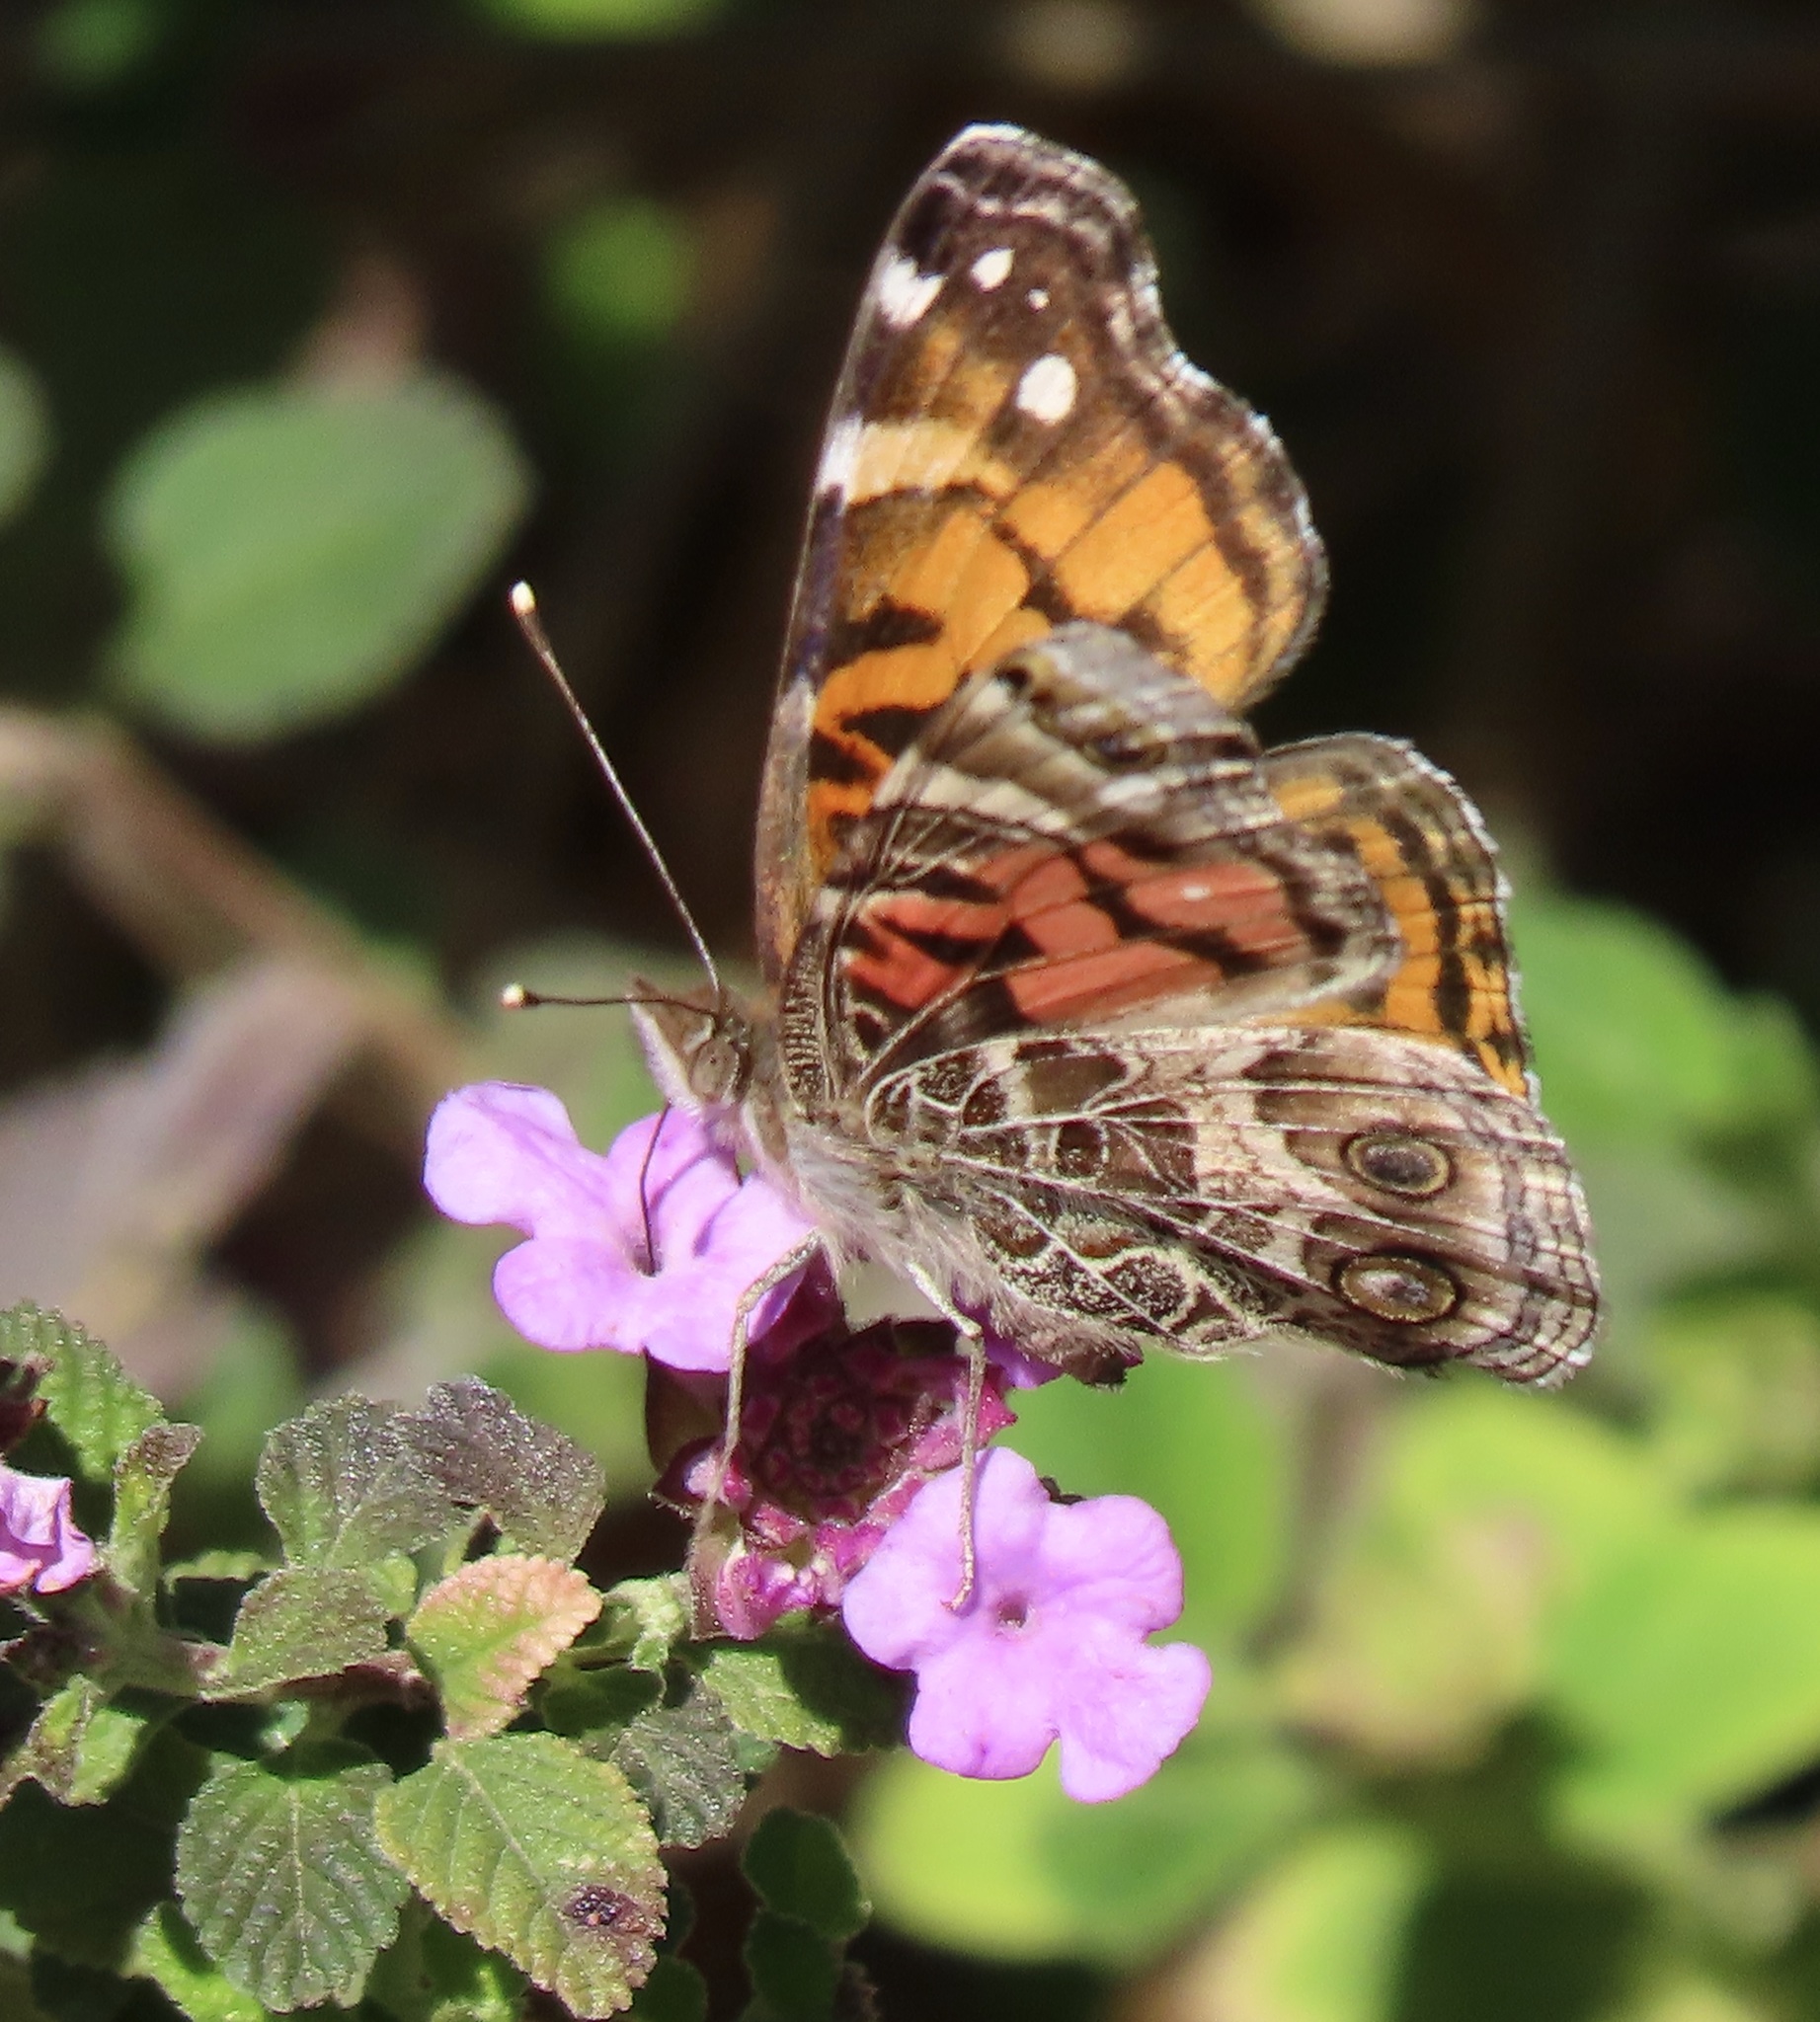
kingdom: Animalia
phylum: Arthropoda
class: Insecta
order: Lepidoptera
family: Nymphalidae
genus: Vanessa
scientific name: Vanessa virginiensis
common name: American lady
